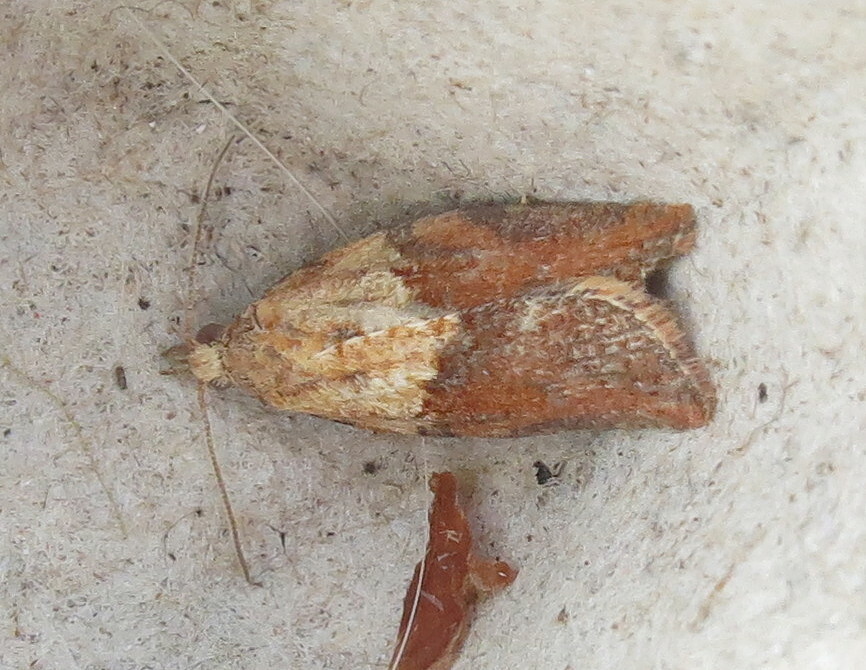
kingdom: Animalia
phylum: Arthropoda
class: Insecta
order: Lepidoptera
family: Tortricidae
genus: Epiphyas
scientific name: Epiphyas postvittana
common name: Light brown apple moth
